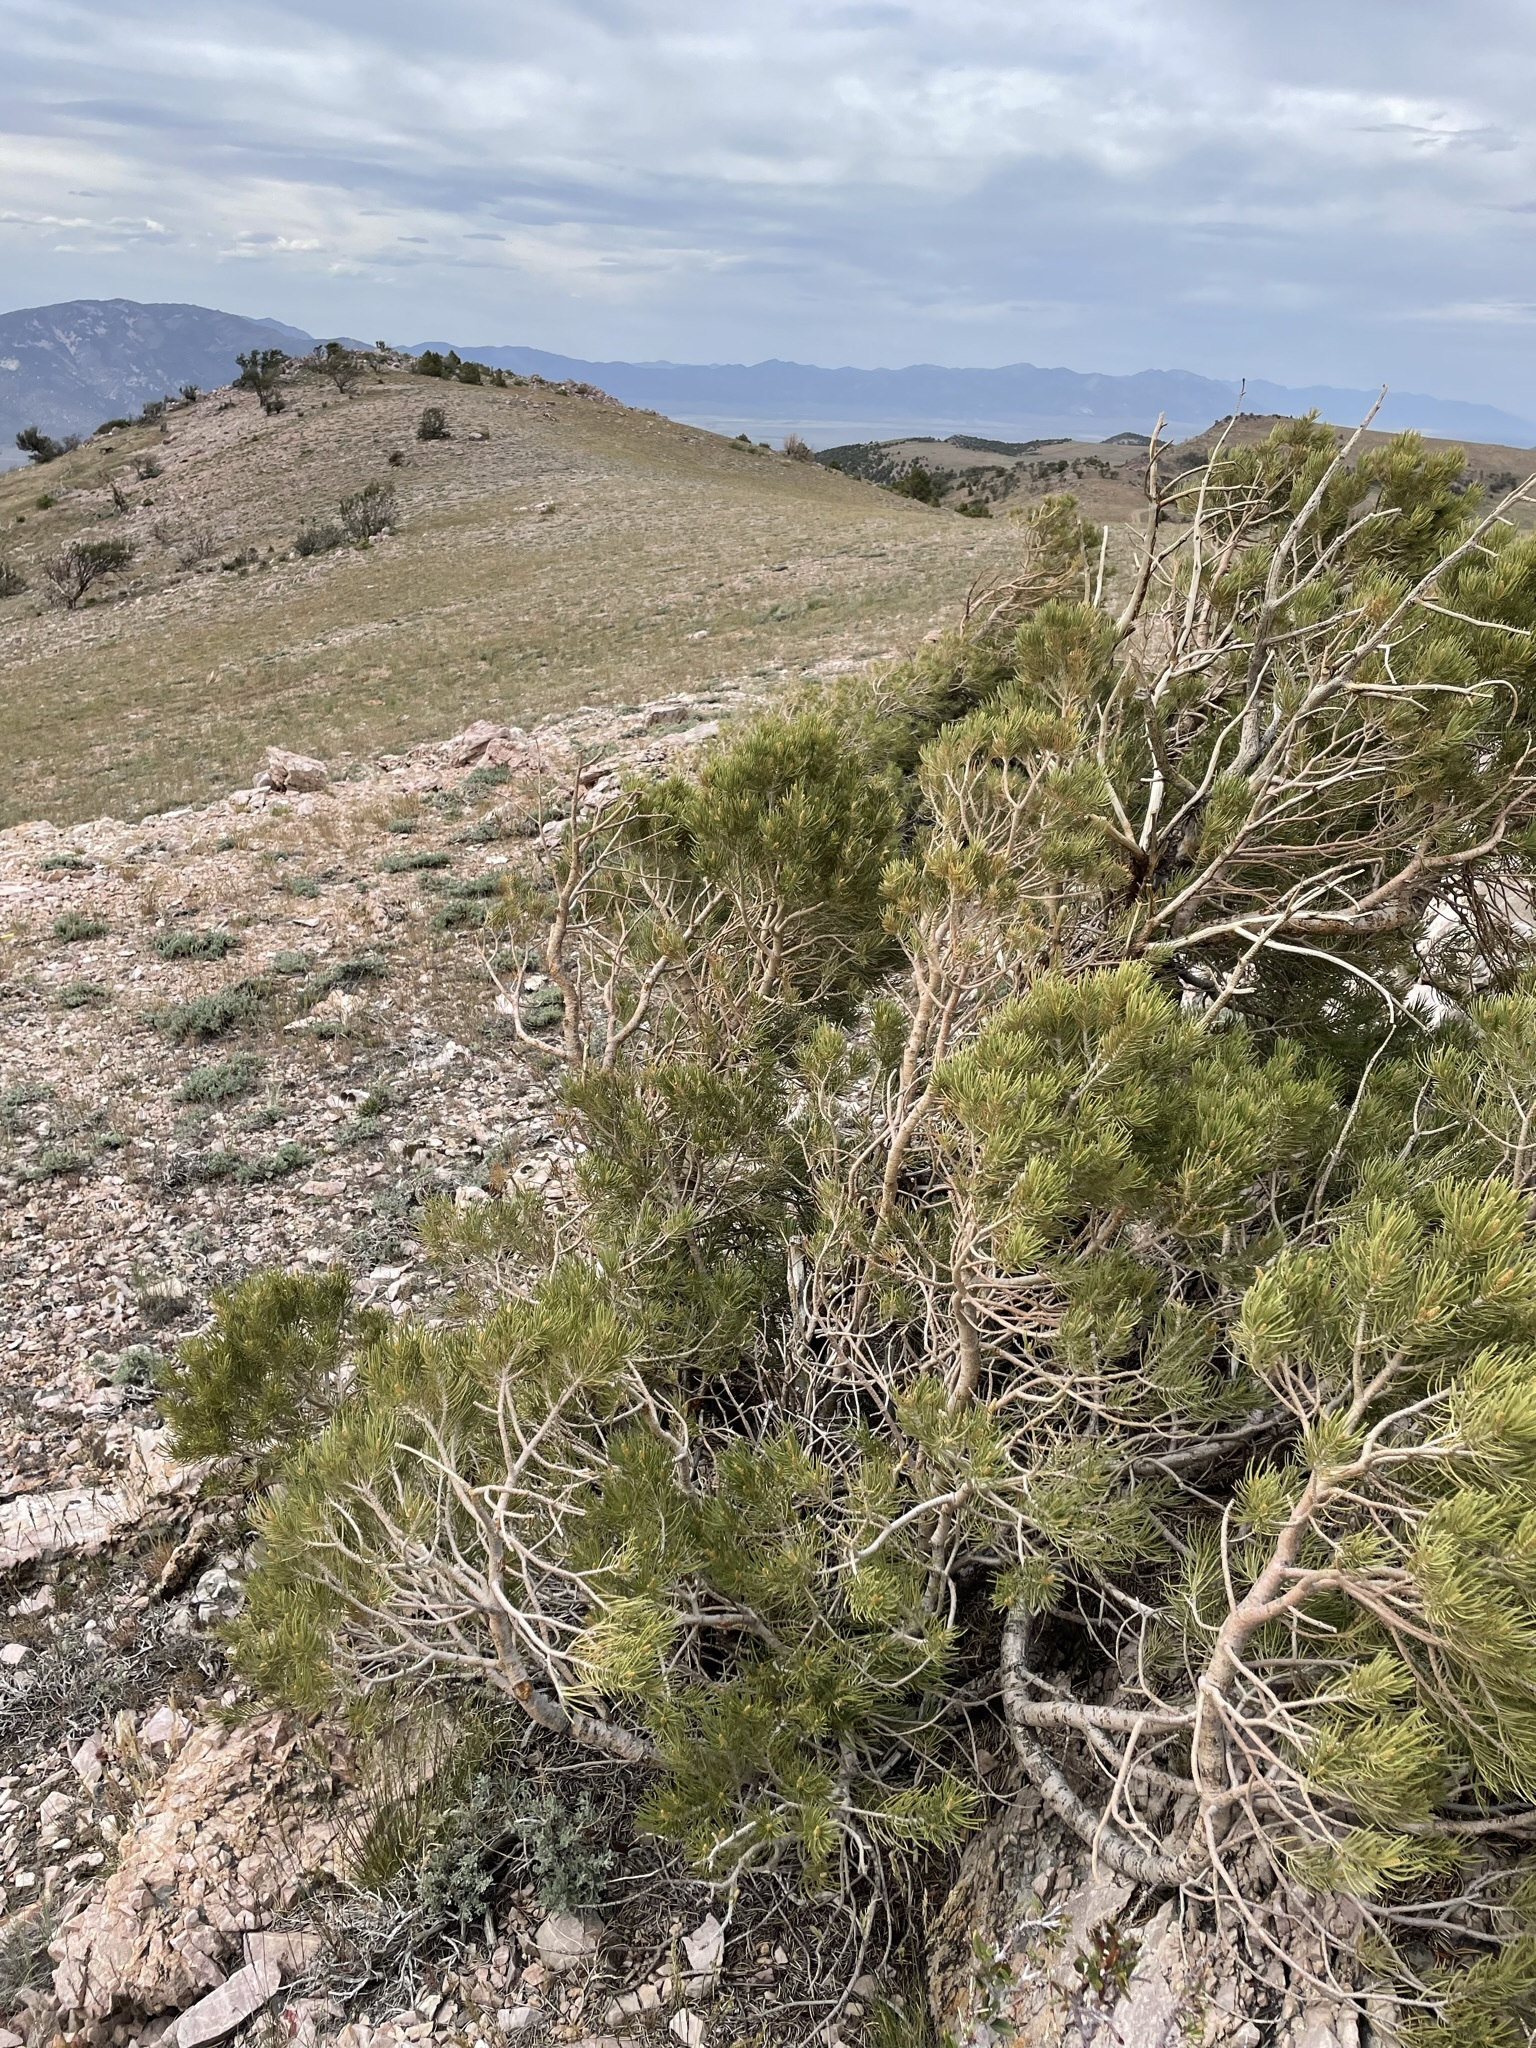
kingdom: Plantae
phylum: Tracheophyta
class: Pinopsida
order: Pinales
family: Pinaceae
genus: Pinus
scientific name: Pinus monophylla
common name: One-leaved nut pine
